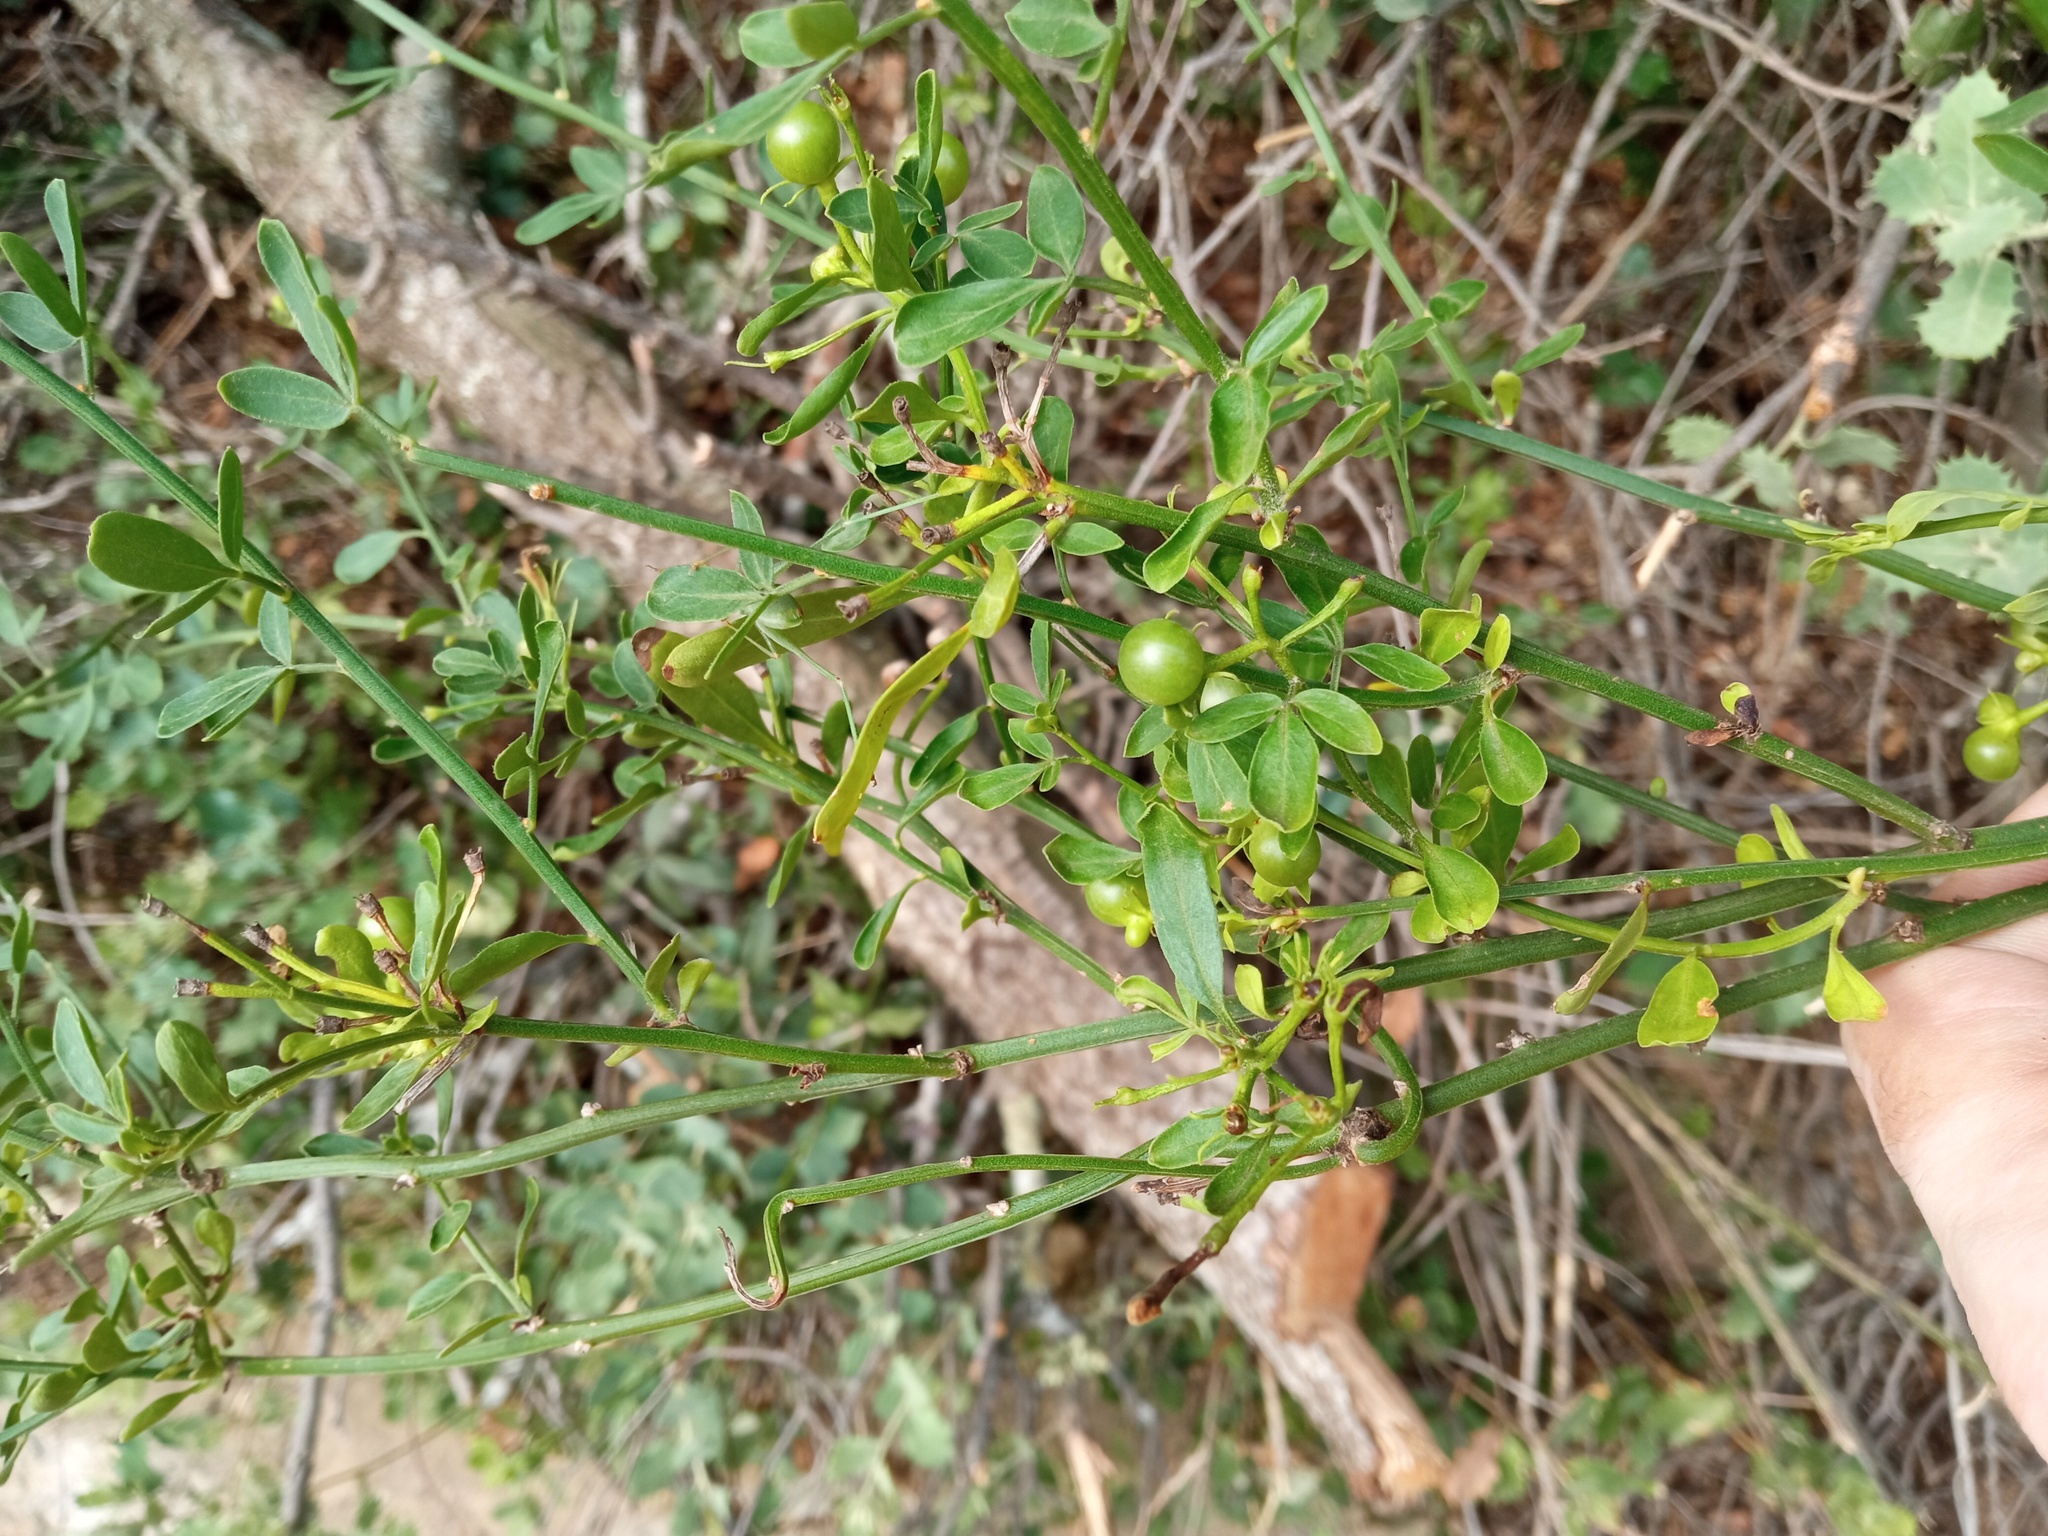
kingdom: Plantae
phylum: Tracheophyta
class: Magnoliopsida
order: Lamiales
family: Oleaceae
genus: Chrysojasminum
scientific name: Chrysojasminum fruticans
